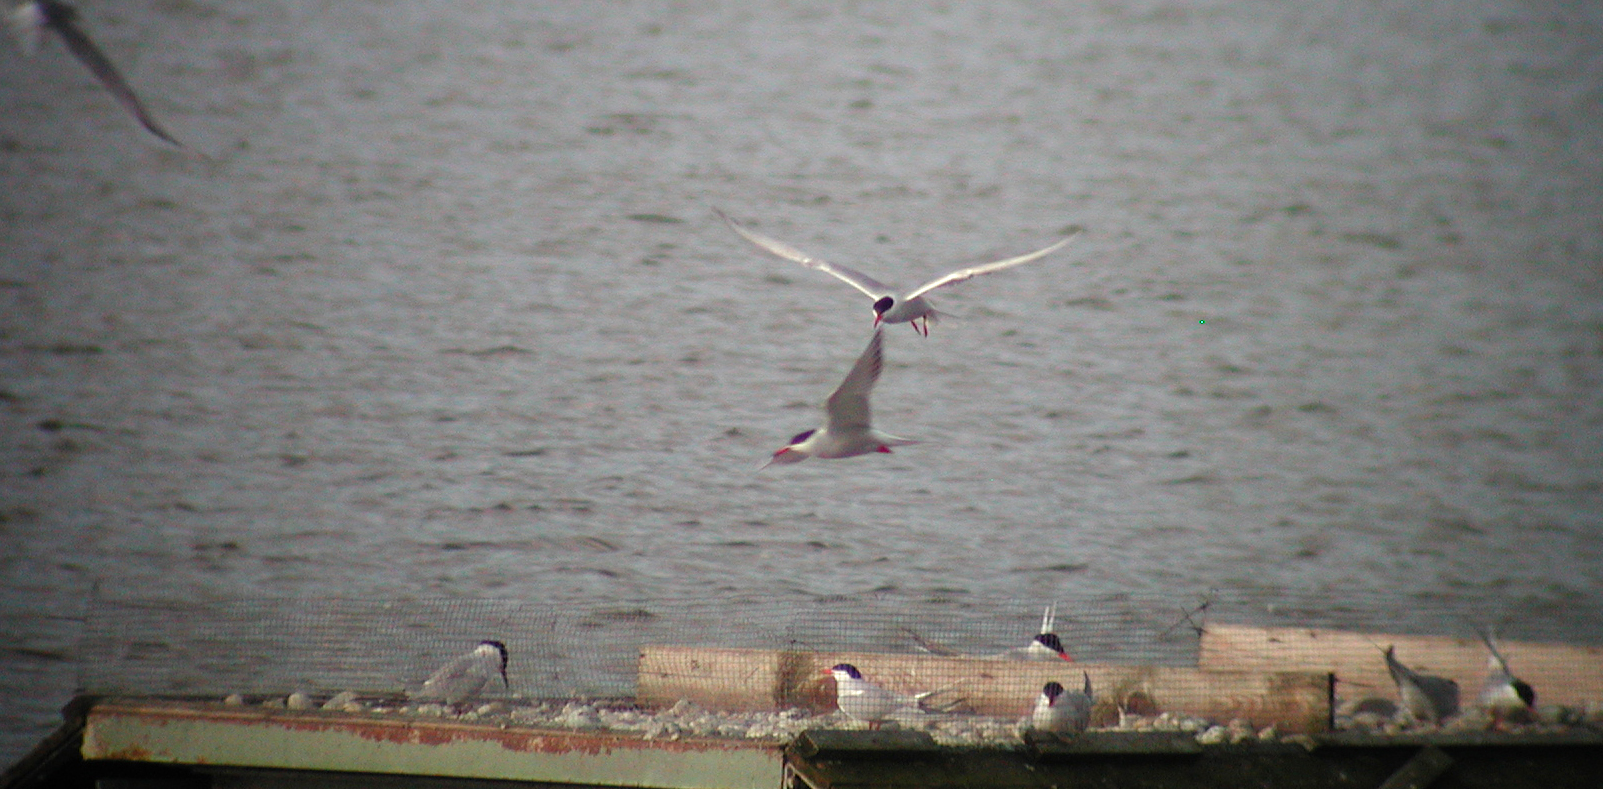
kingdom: Animalia
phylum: Chordata
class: Aves
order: Charadriiformes
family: Laridae
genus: Sterna
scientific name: Sterna hirundo
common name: Common tern
